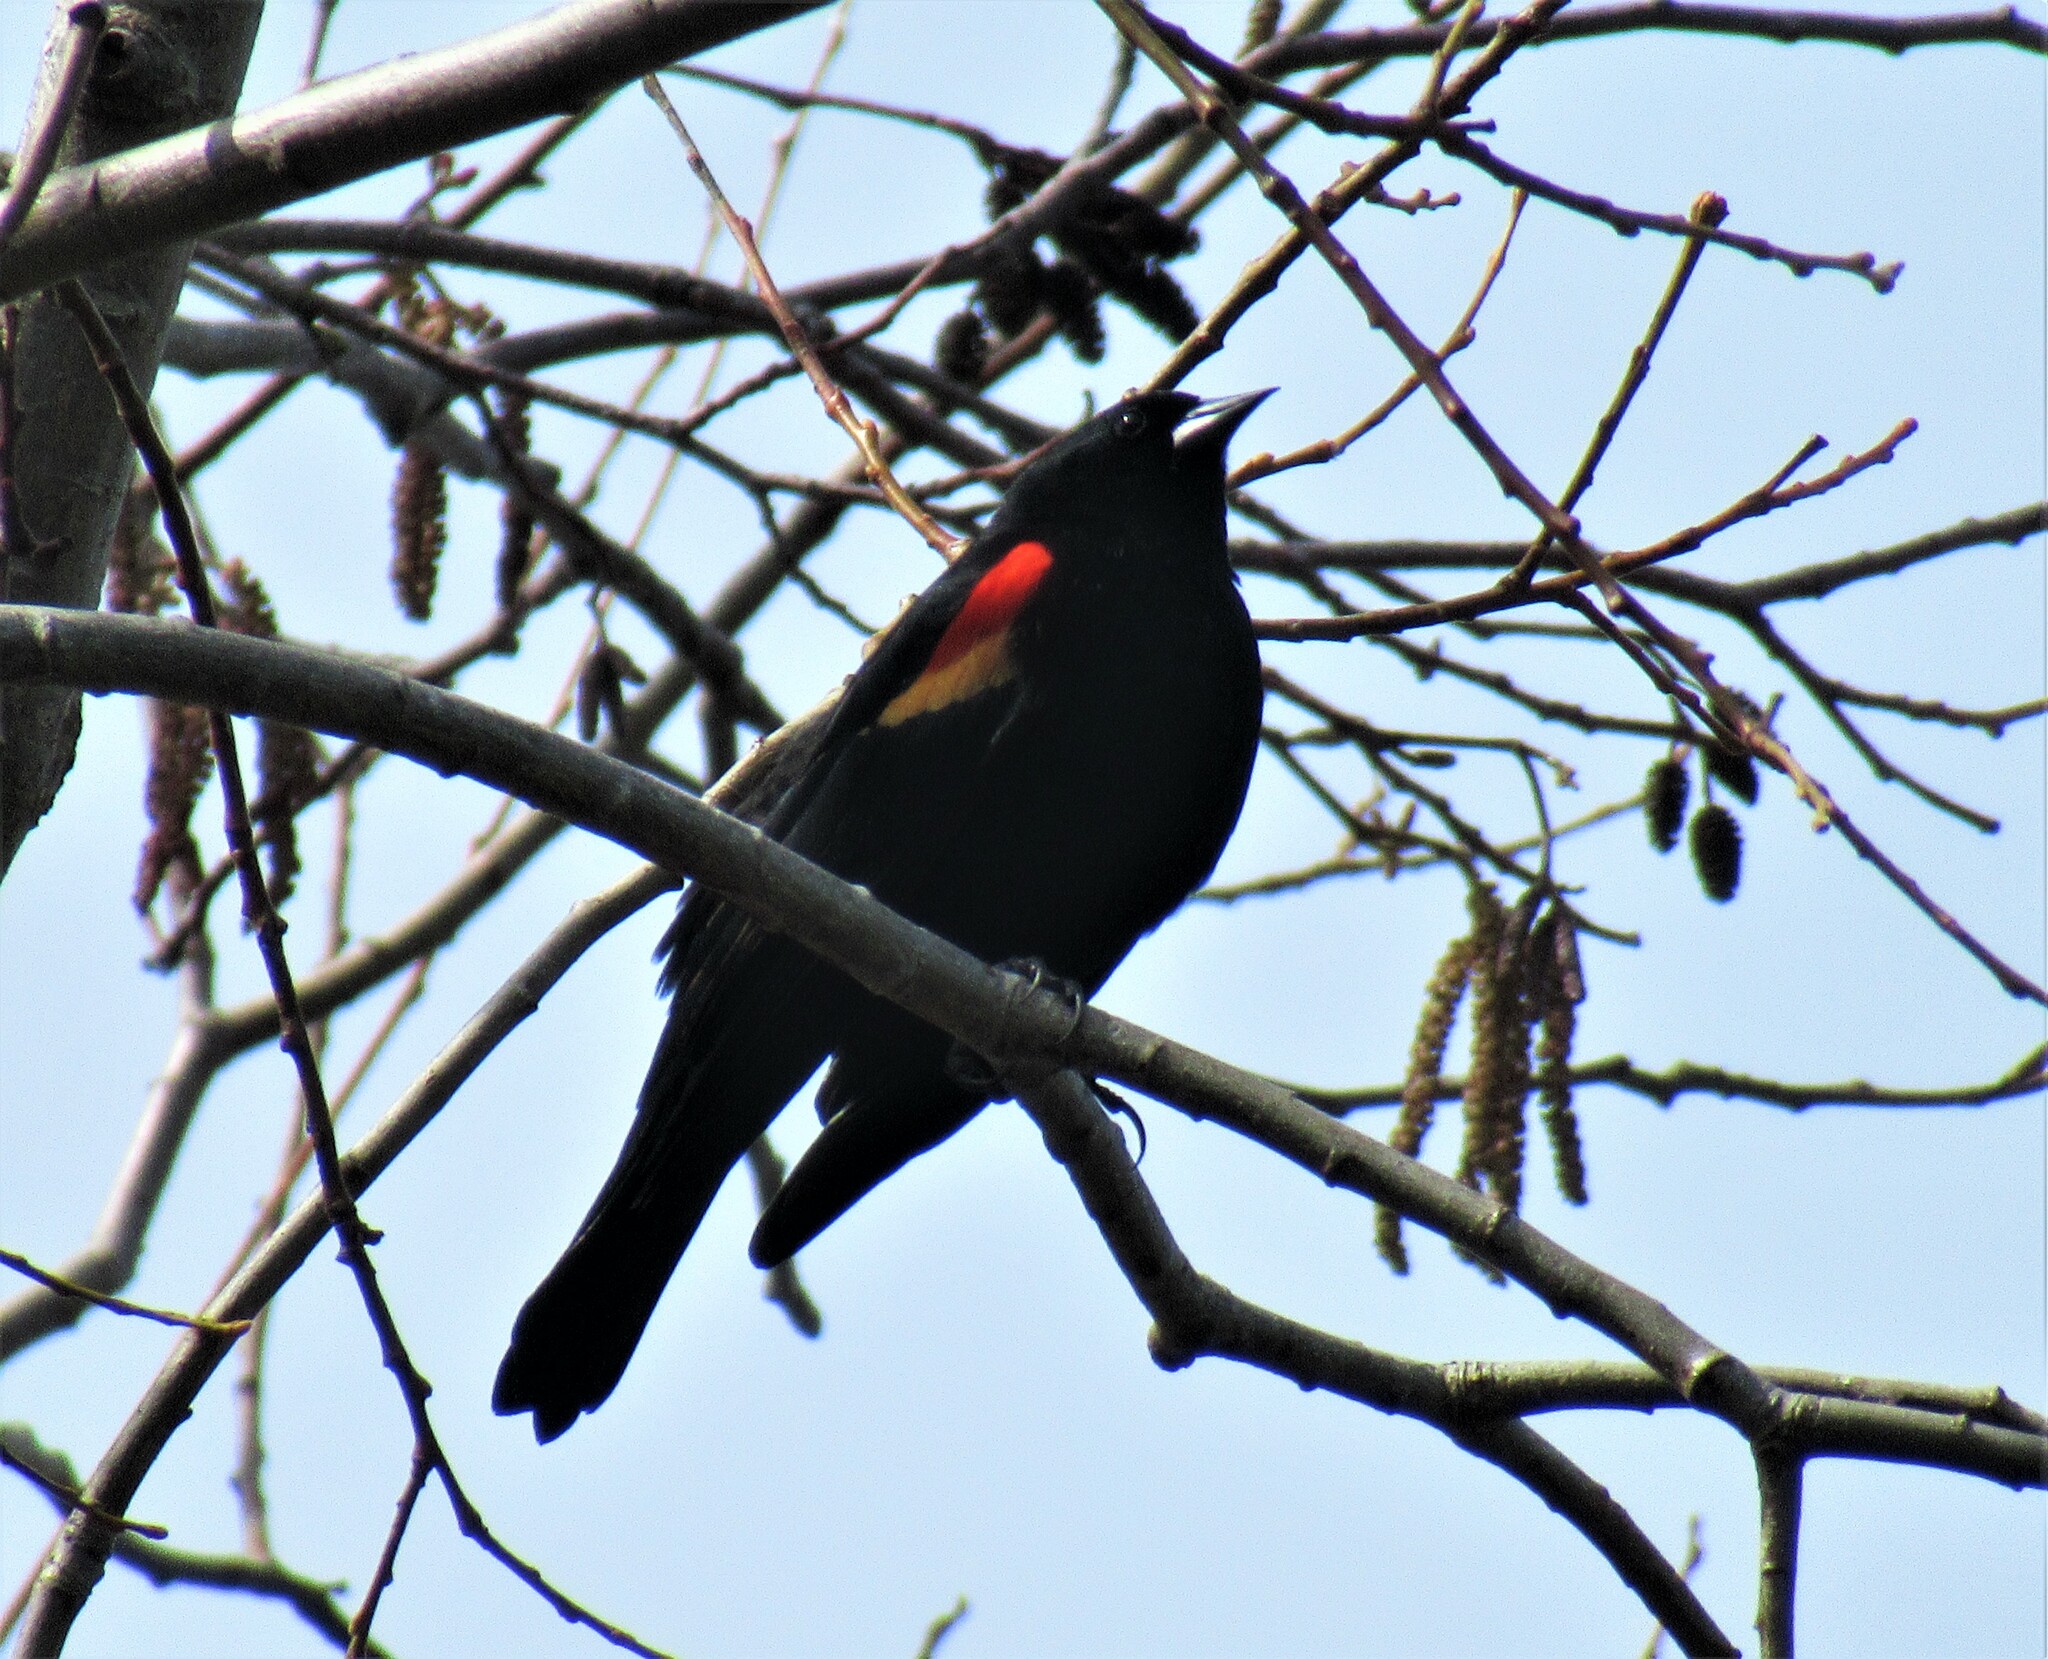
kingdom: Animalia
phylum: Chordata
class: Aves
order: Passeriformes
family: Icteridae
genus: Agelaius
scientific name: Agelaius phoeniceus
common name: Red-winged blackbird
